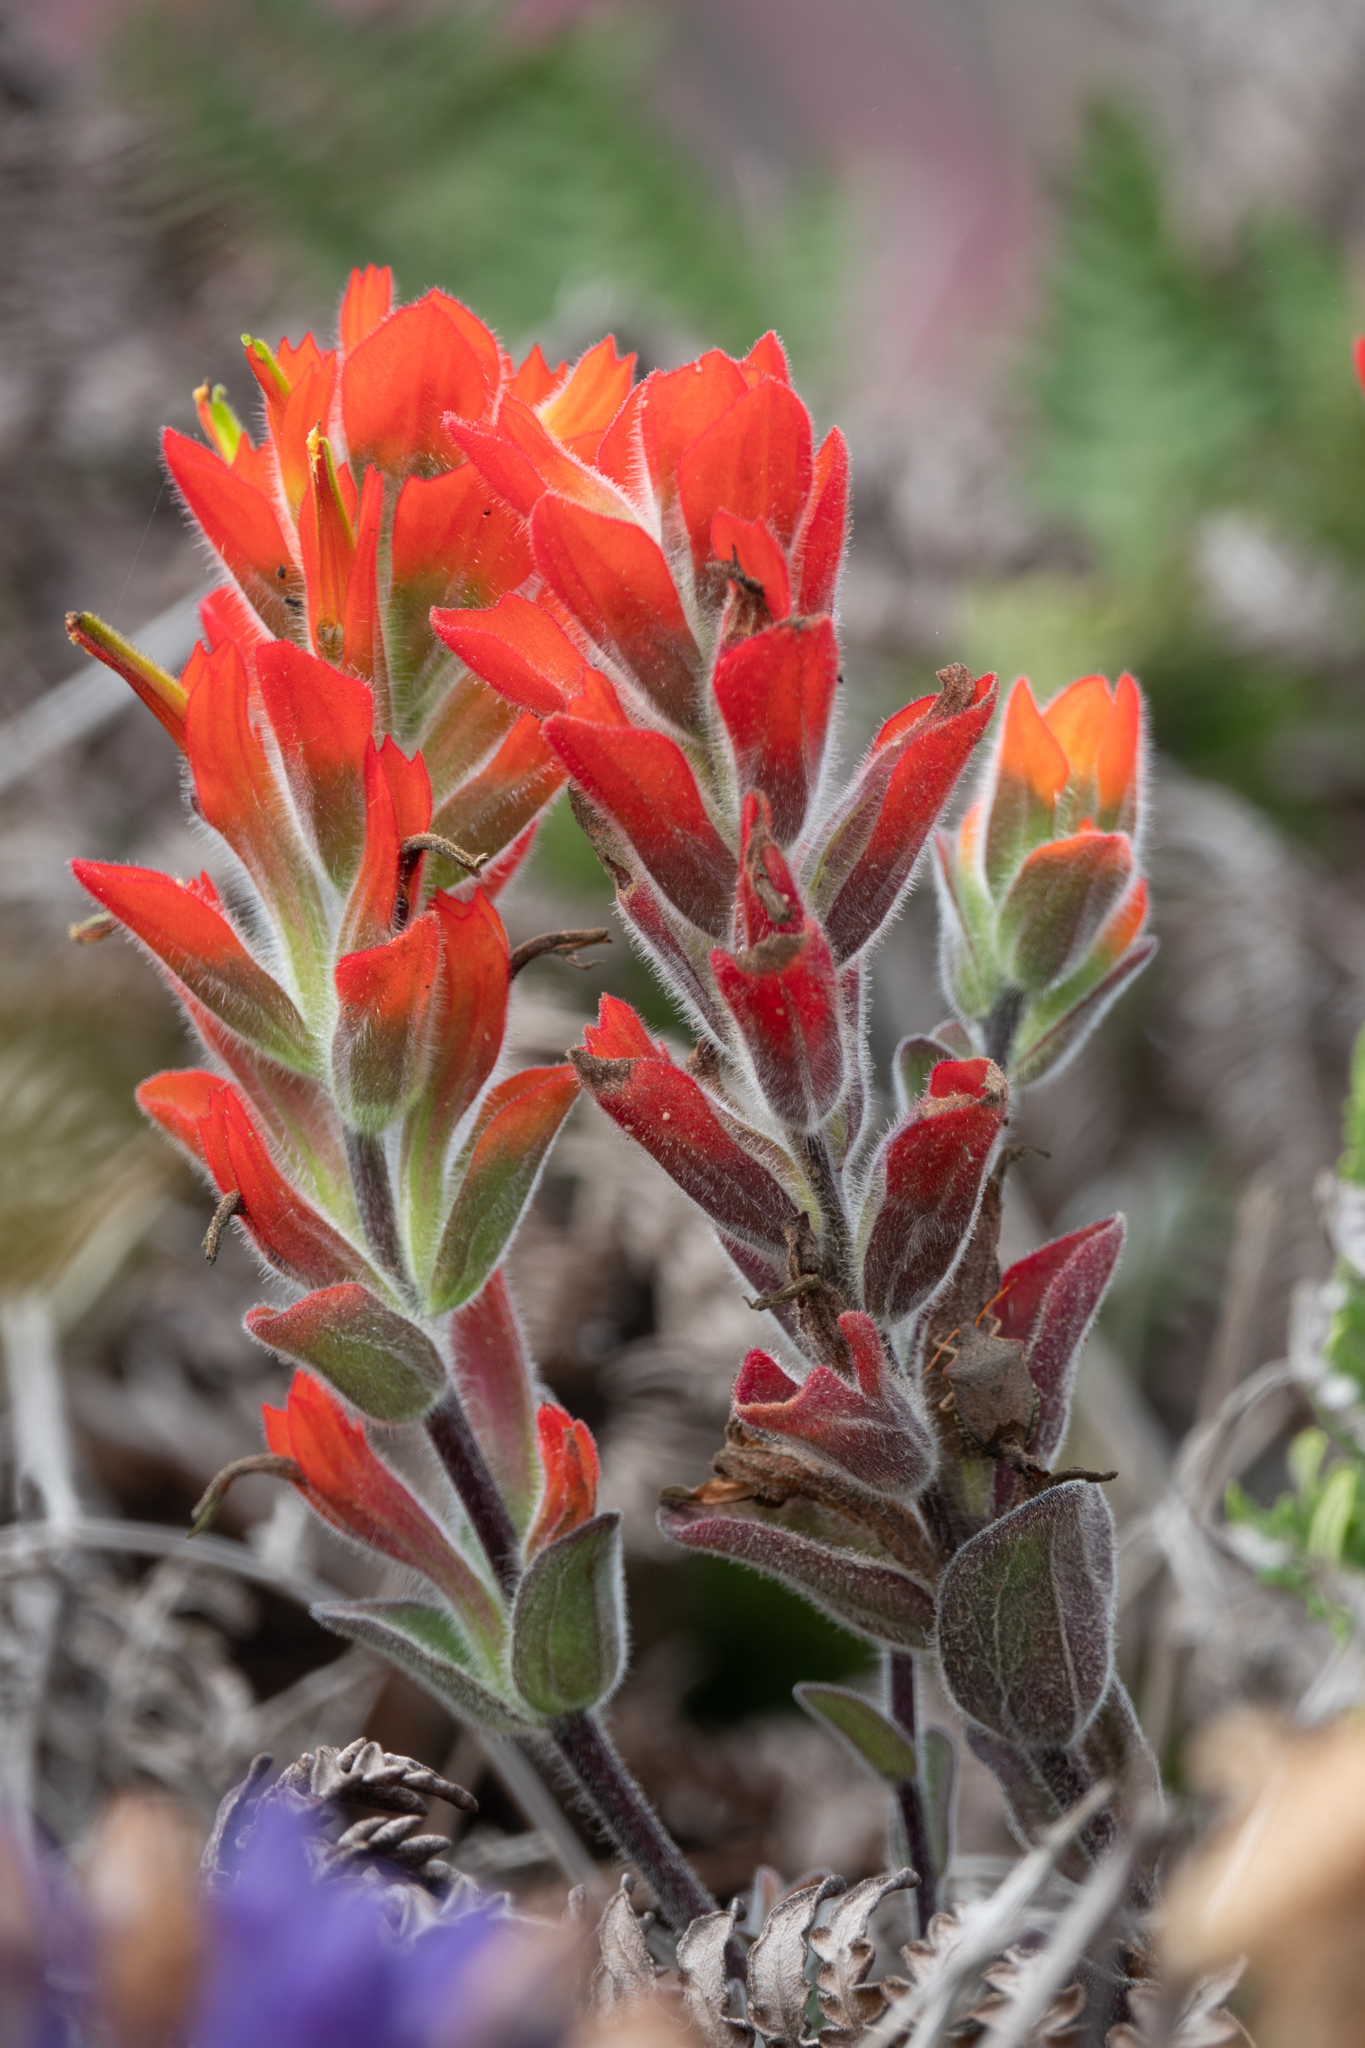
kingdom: Plantae
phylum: Tracheophyta
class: Magnoliopsida
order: Lamiales
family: Orobanchaceae
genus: Castilleja
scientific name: Castilleja mendocinensis
